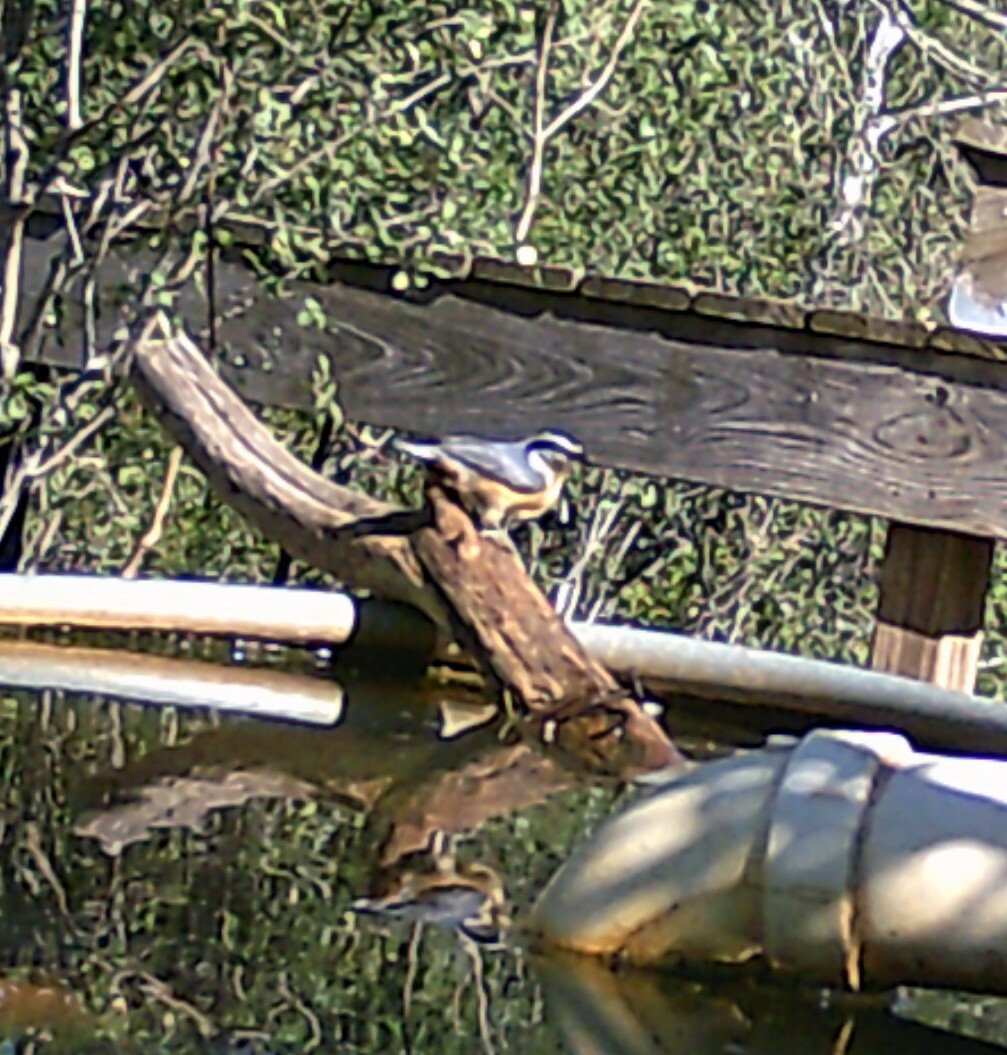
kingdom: Animalia
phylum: Chordata
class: Aves
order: Passeriformes
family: Sittidae
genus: Sitta
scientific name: Sitta canadensis
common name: Red-breasted nuthatch
